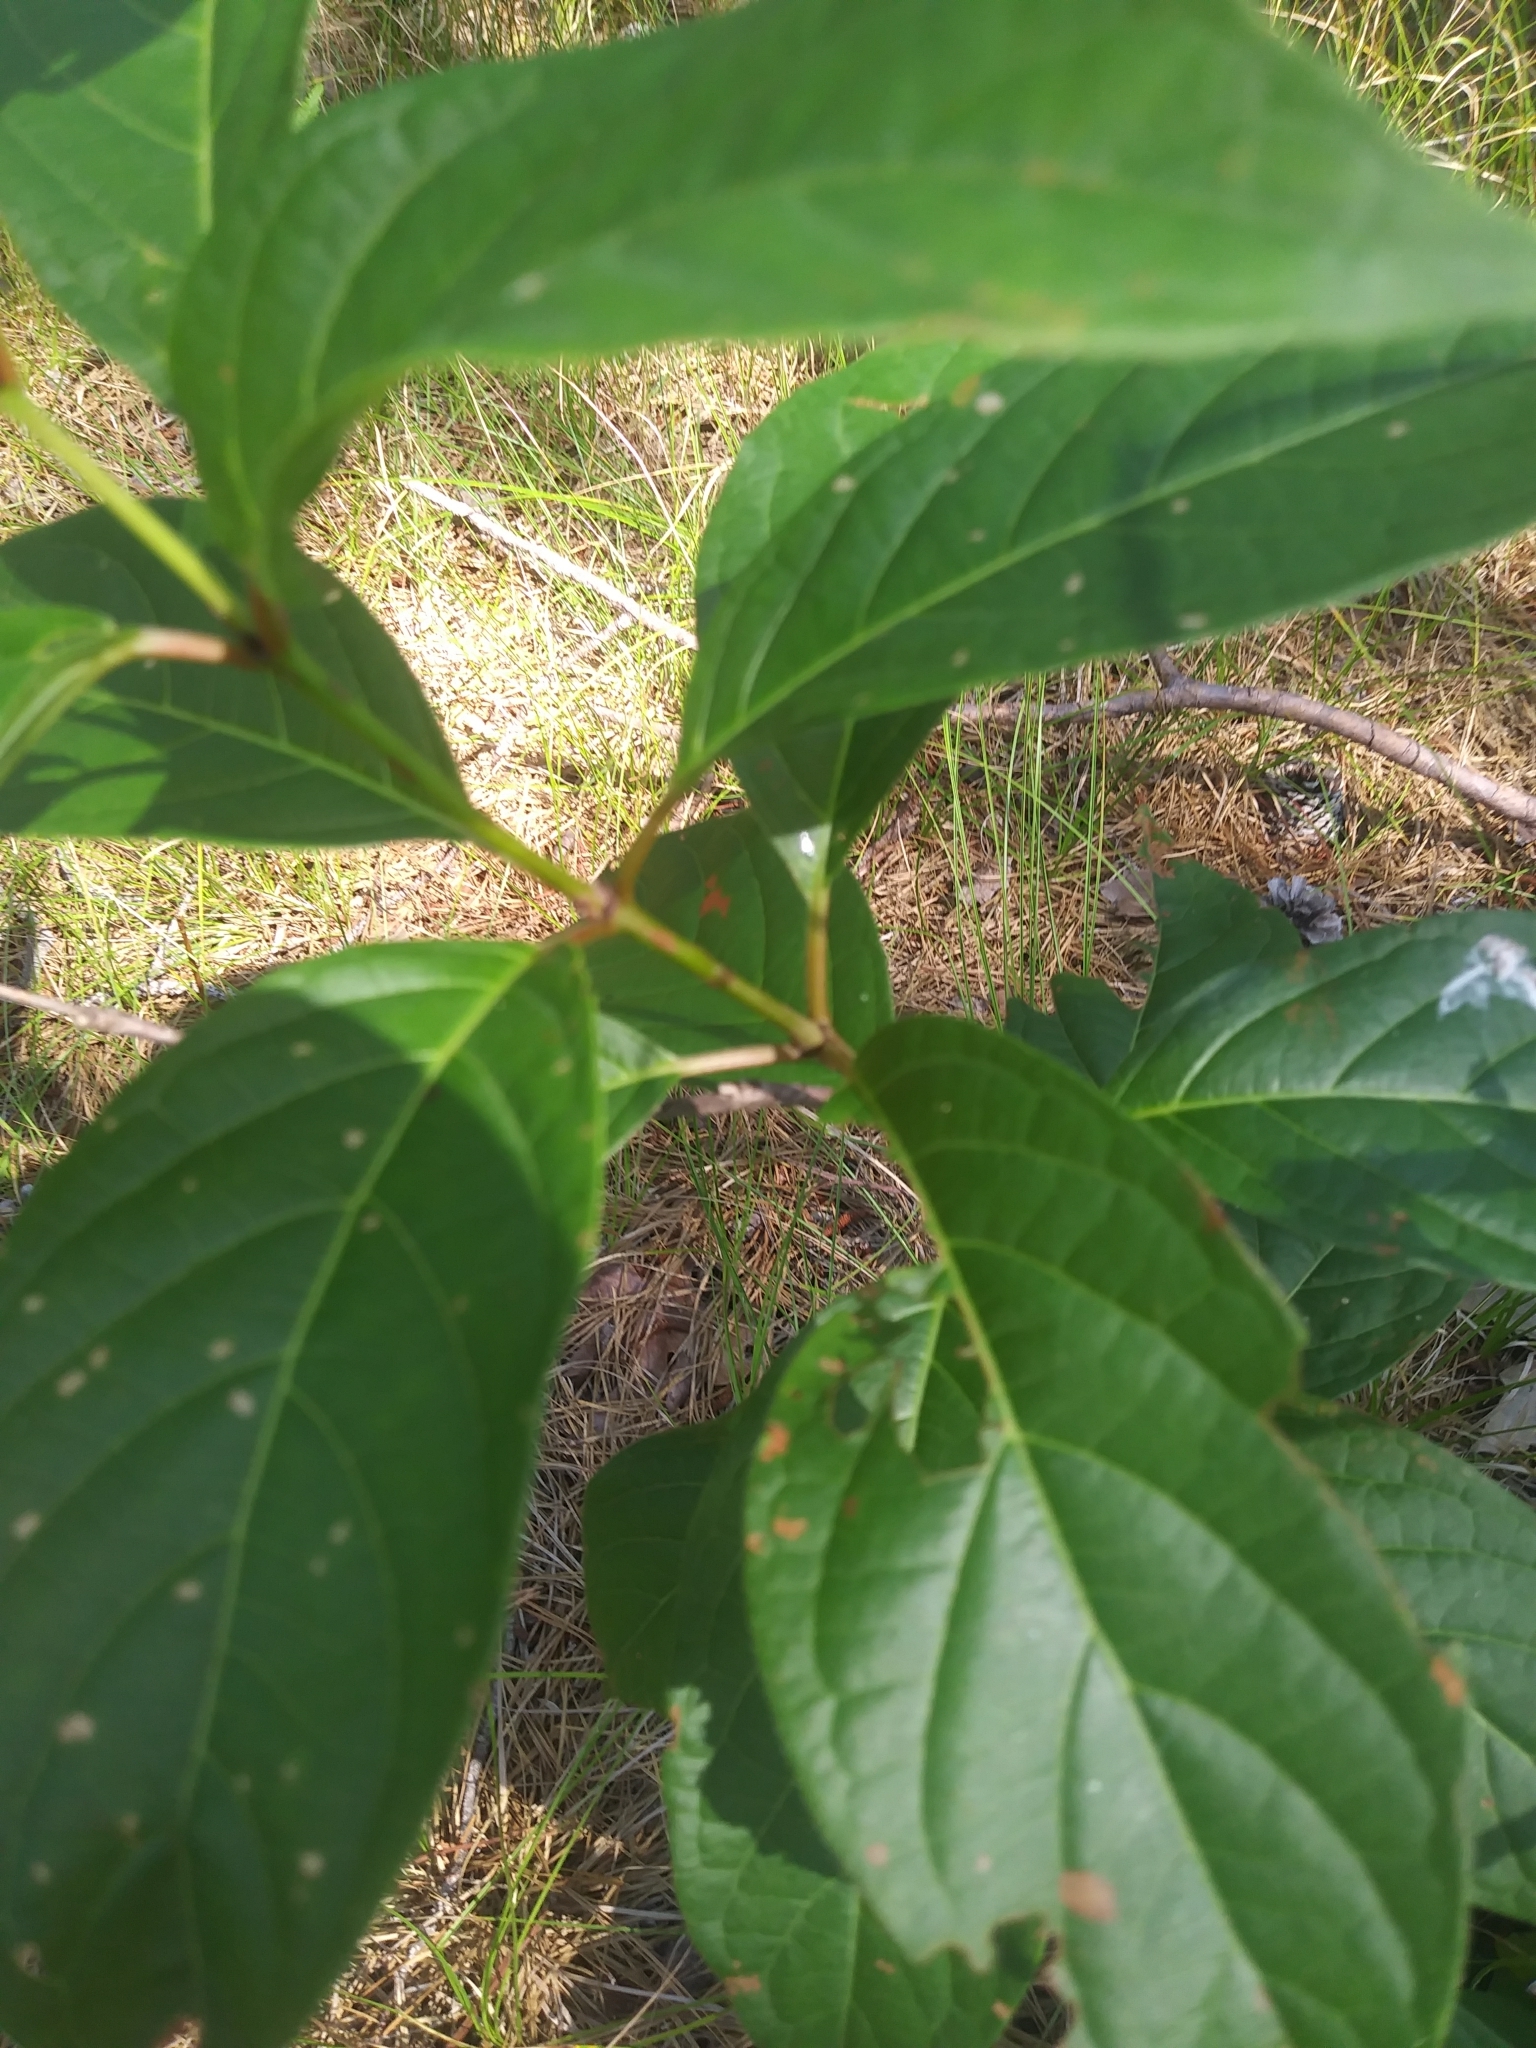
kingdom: Plantae
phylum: Tracheophyta
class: Magnoliopsida
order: Gentianales
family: Rubiaceae
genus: Cephalanthus
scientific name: Cephalanthus occidentalis
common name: Button-willow
